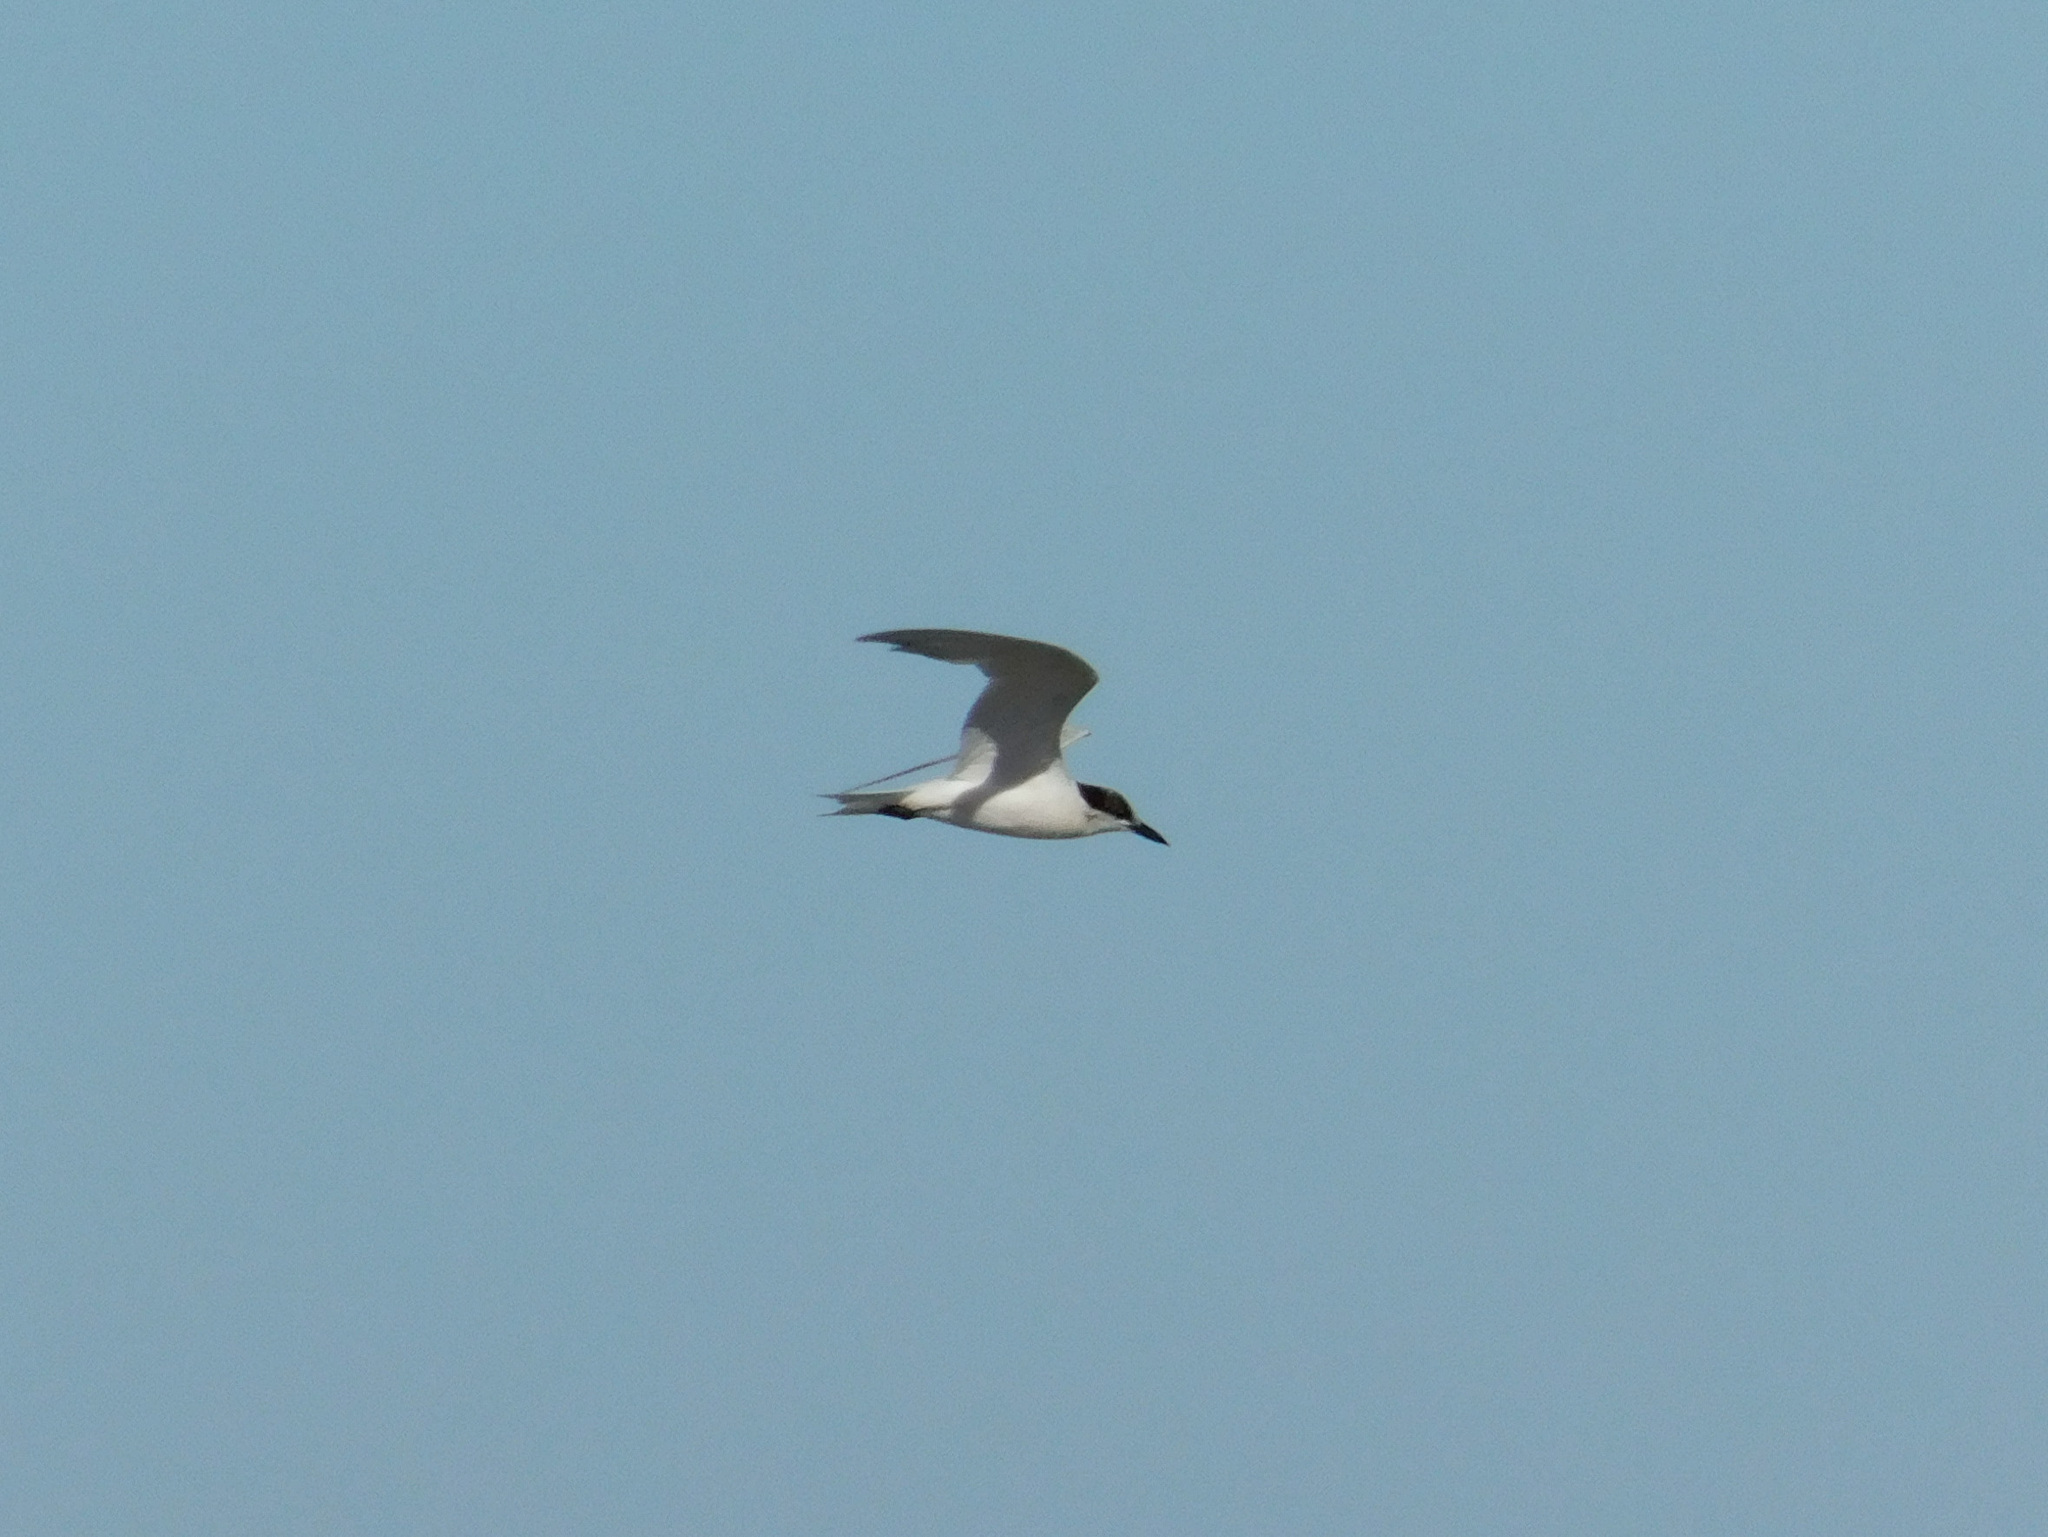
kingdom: Animalia
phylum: Chordata
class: Aves
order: Charadriiformes
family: Laridae
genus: Gelochelidon
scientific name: Gelochelidon nilotica
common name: Gull-billed tern
